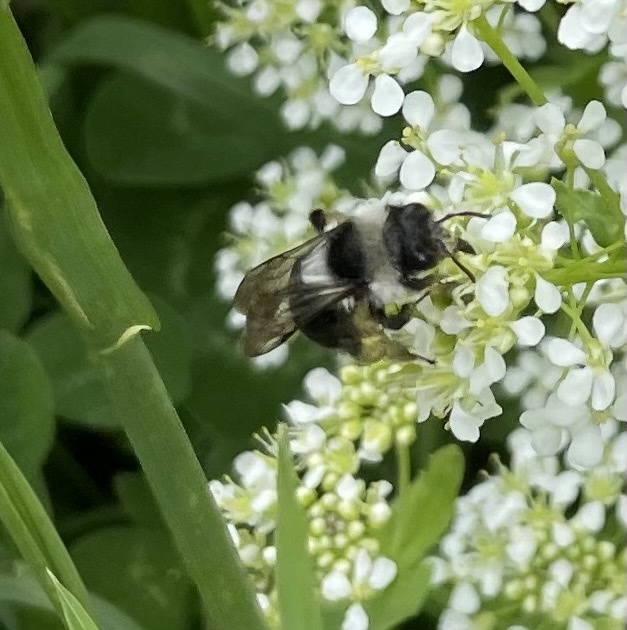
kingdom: Animalia
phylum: Arthropoda
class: Insecta
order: Hymenoptera
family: Andrenidae
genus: Andrena
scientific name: Andrena cineraria
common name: Ashy mining bee
